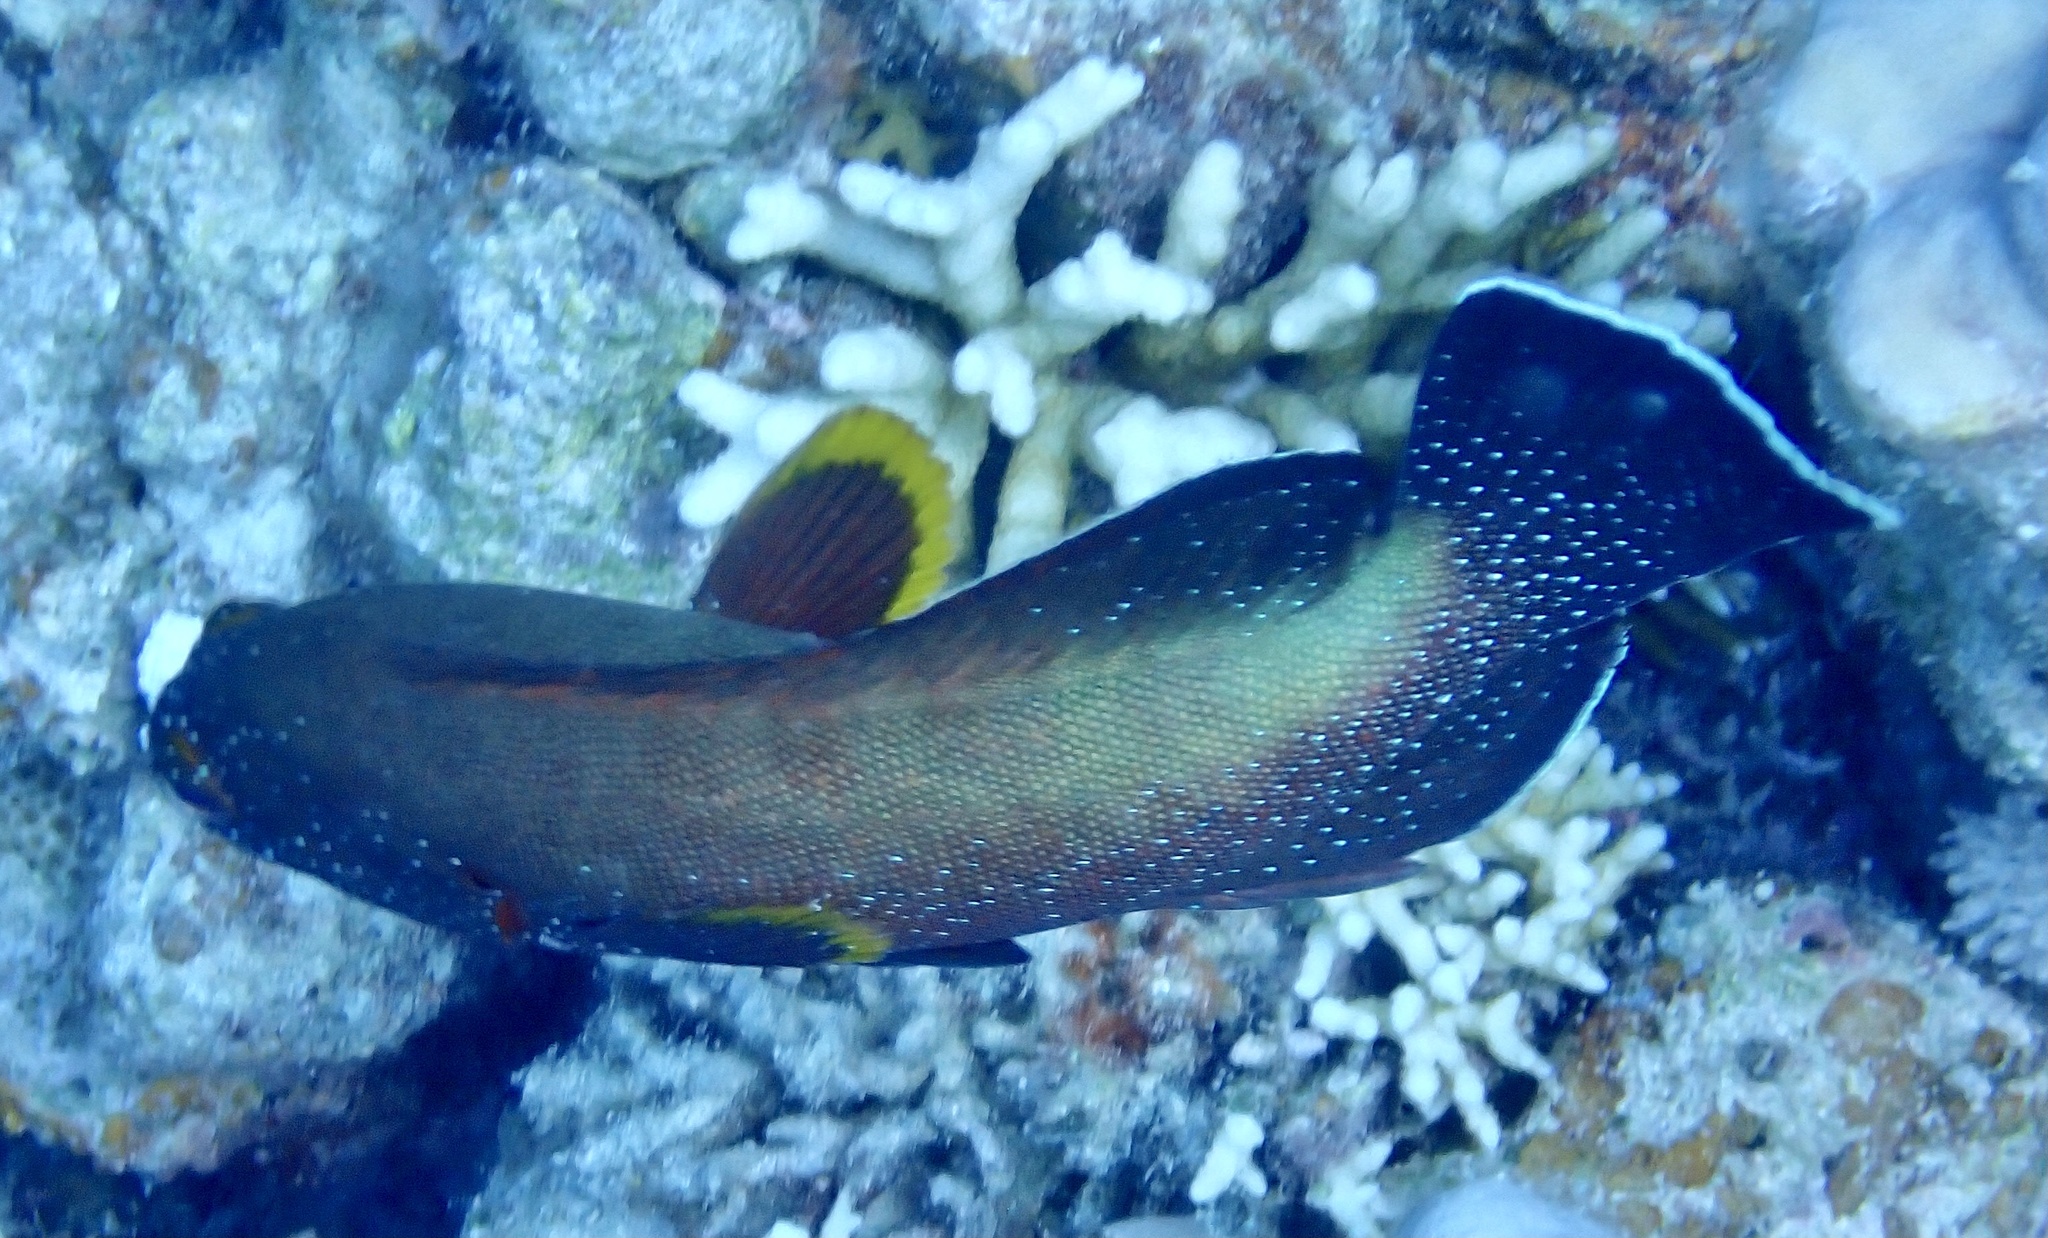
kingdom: Animalia
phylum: Chordata
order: Perciformes
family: Serranidae
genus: Cephalopholis
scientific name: Cephalopholis hemistiktos
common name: Halfspotted hind
